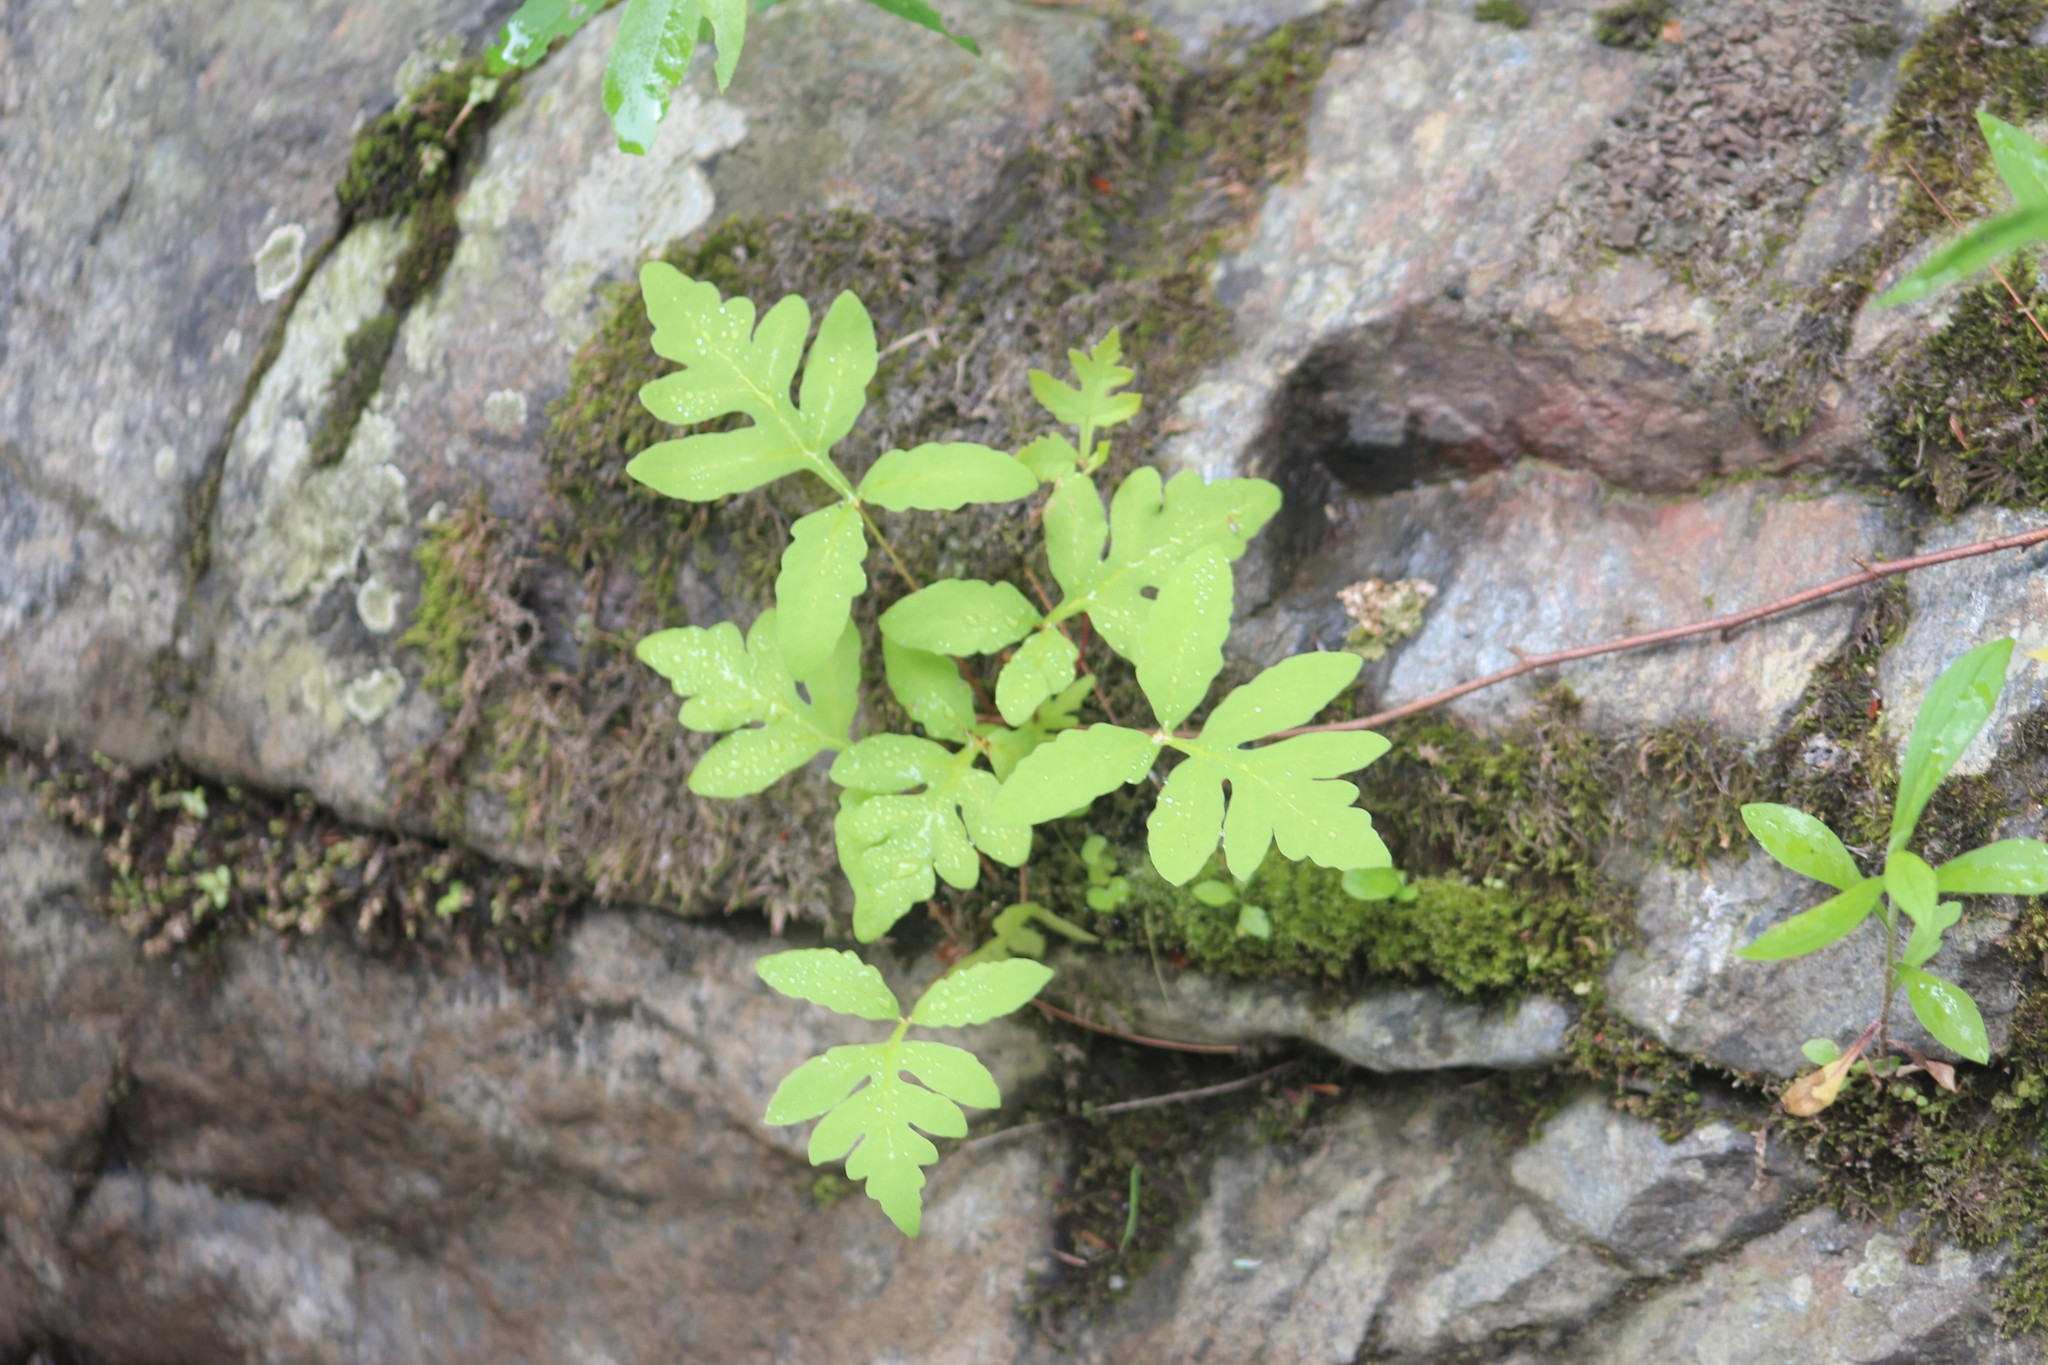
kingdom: Plantae
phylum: Tracheophyta
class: Polypodiopsida
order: Polypodiales
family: Onocleaceae
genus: Onoclea
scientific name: Onoclea sensibilis
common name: Sensitive fern
